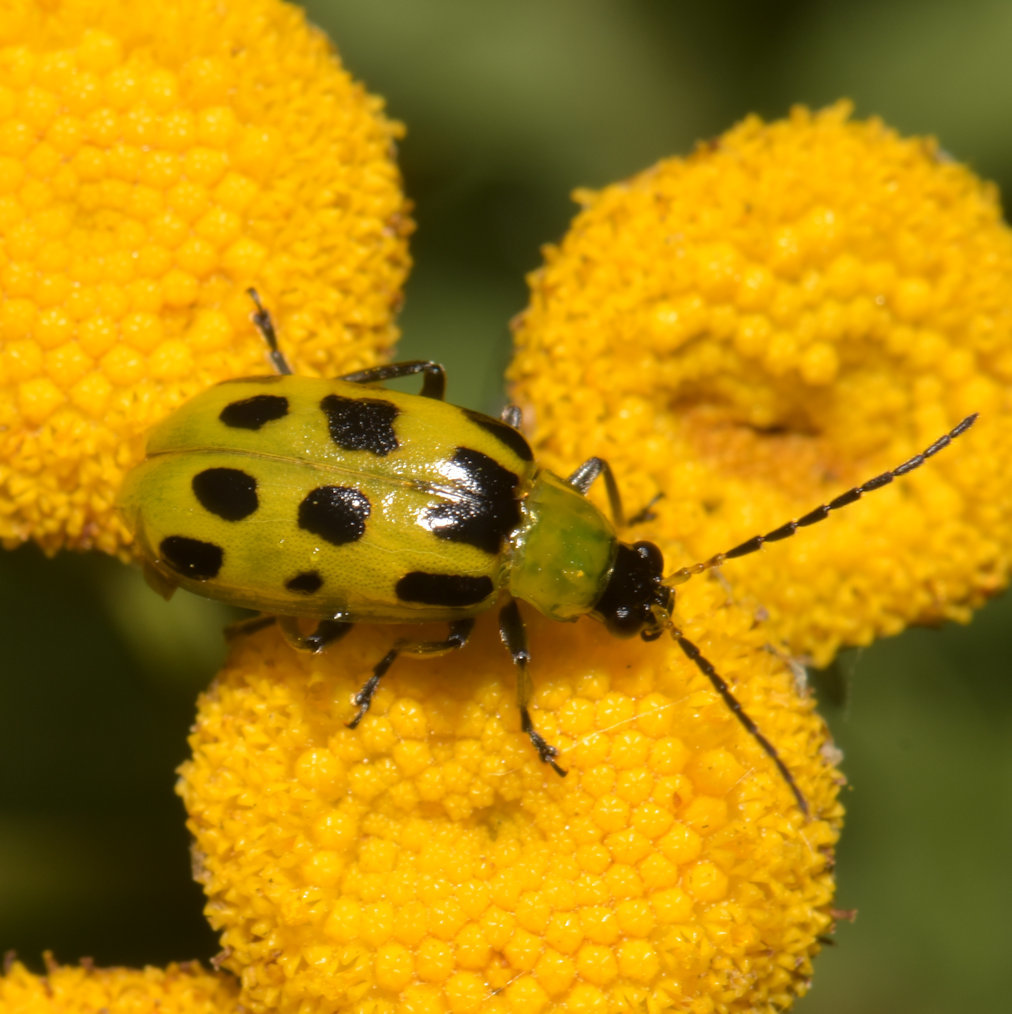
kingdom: Animalia
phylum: Arthropoda
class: Insecta
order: Coleoptera
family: Chrysomelidae
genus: Diabrotica
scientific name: Diabrotica undecimpunctata
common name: Spotted cucumber beetle
